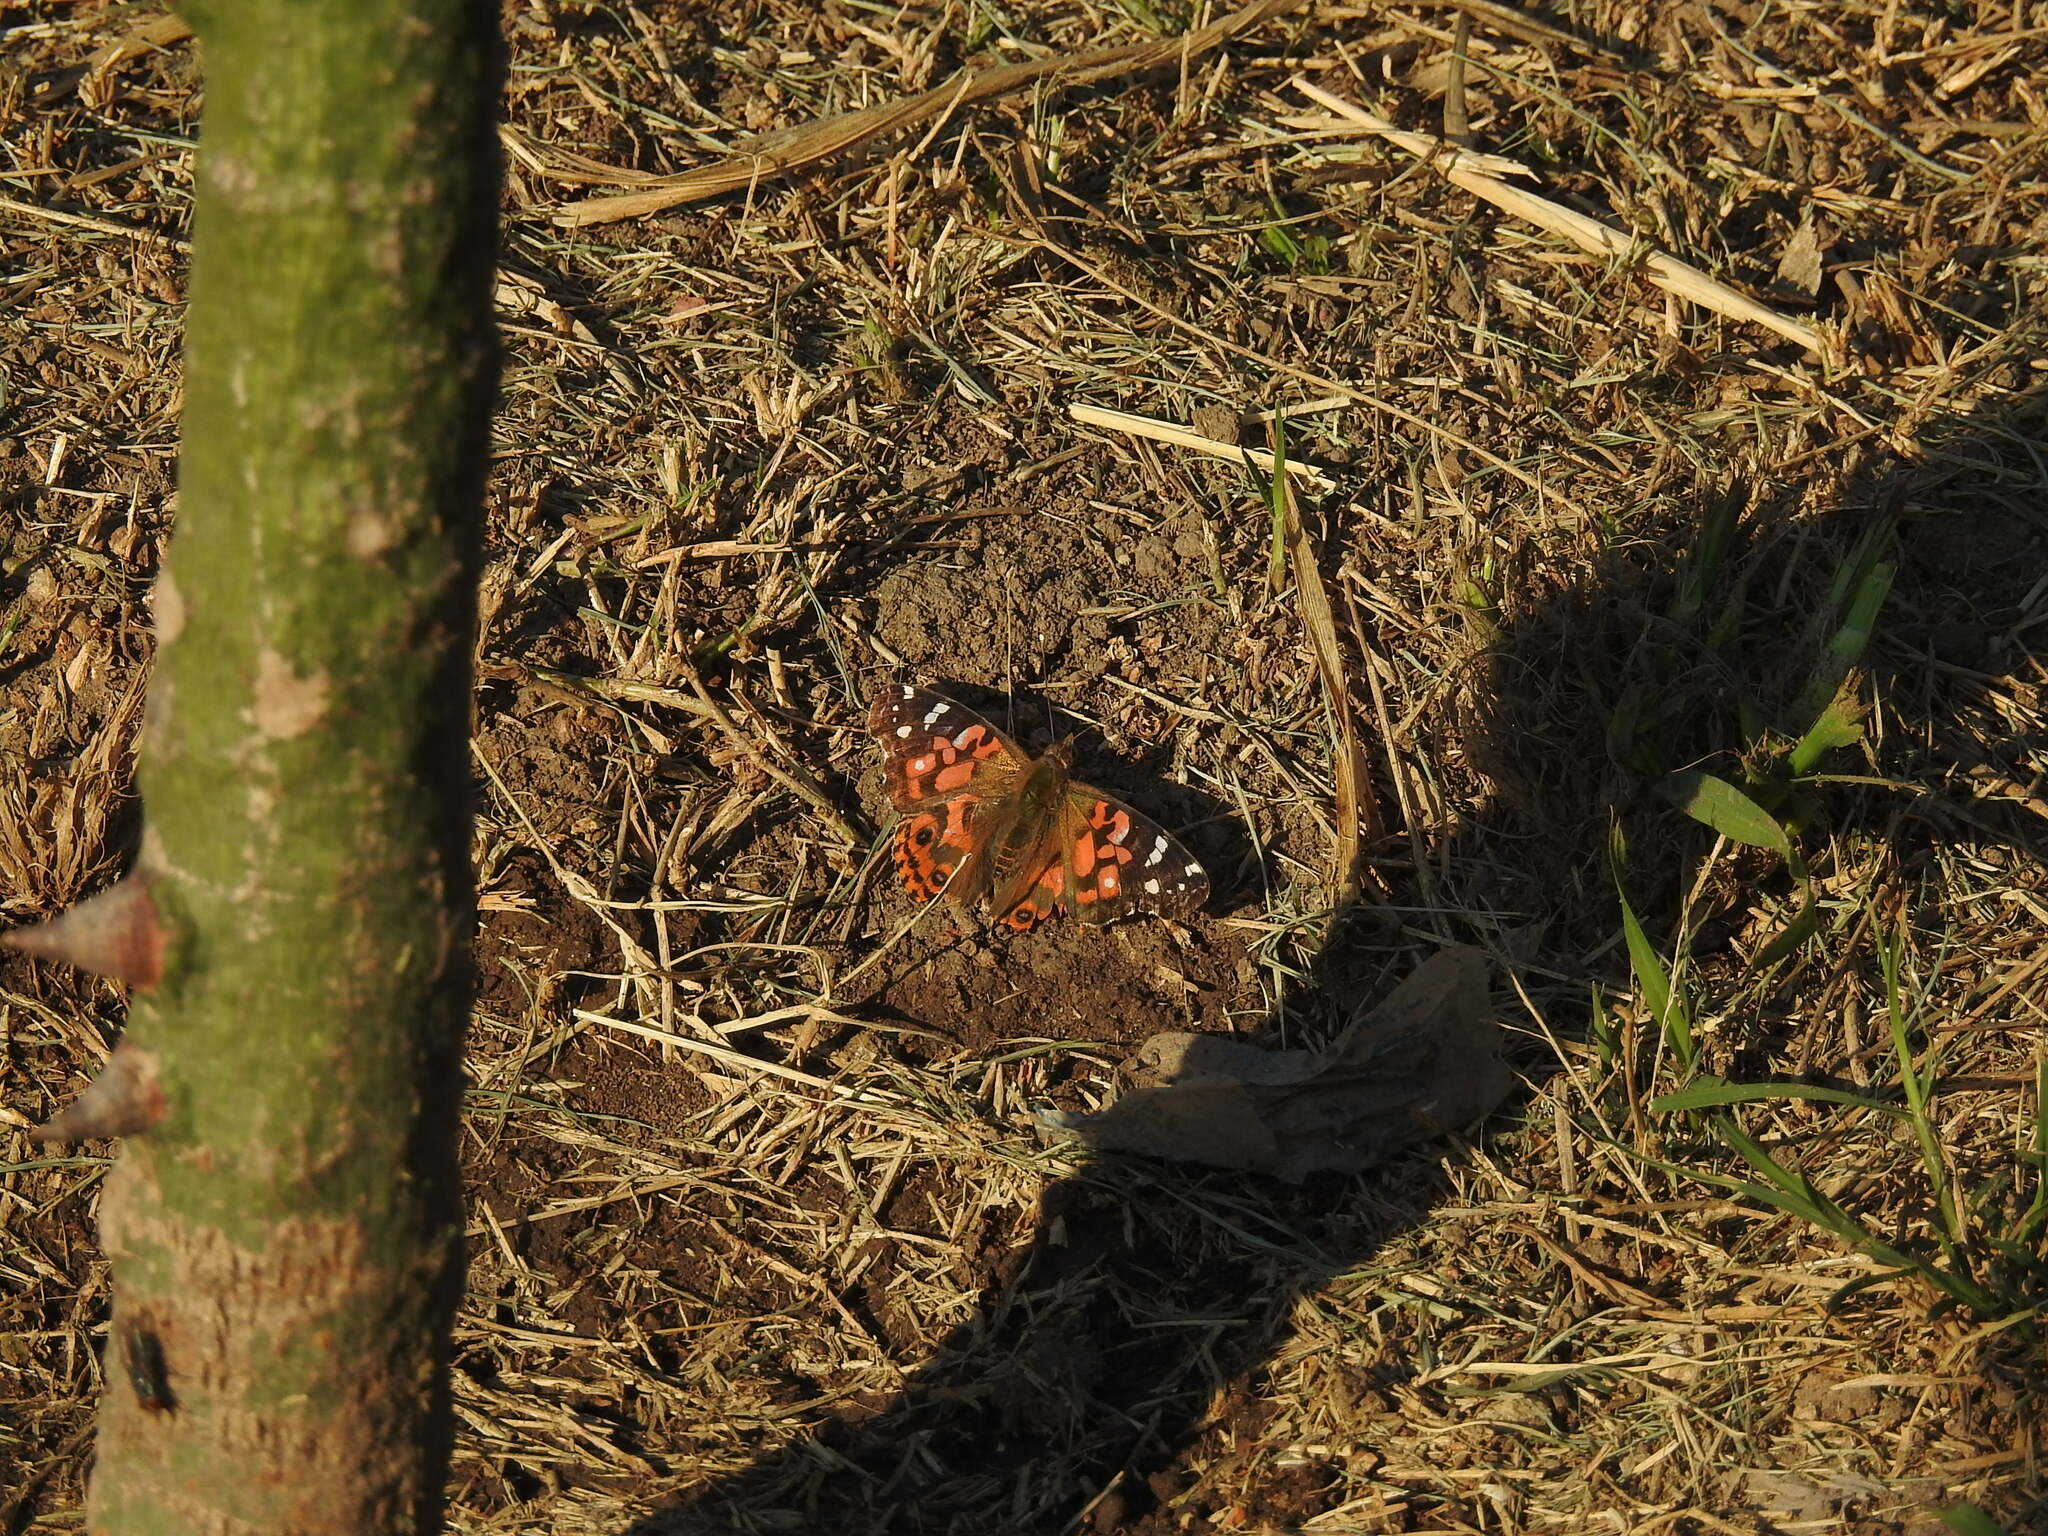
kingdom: Animalia
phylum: Arthropoda
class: Insecta
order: Lepidoptera
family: Nymphalidae
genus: Vanessa
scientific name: Vanessa braziliensis
